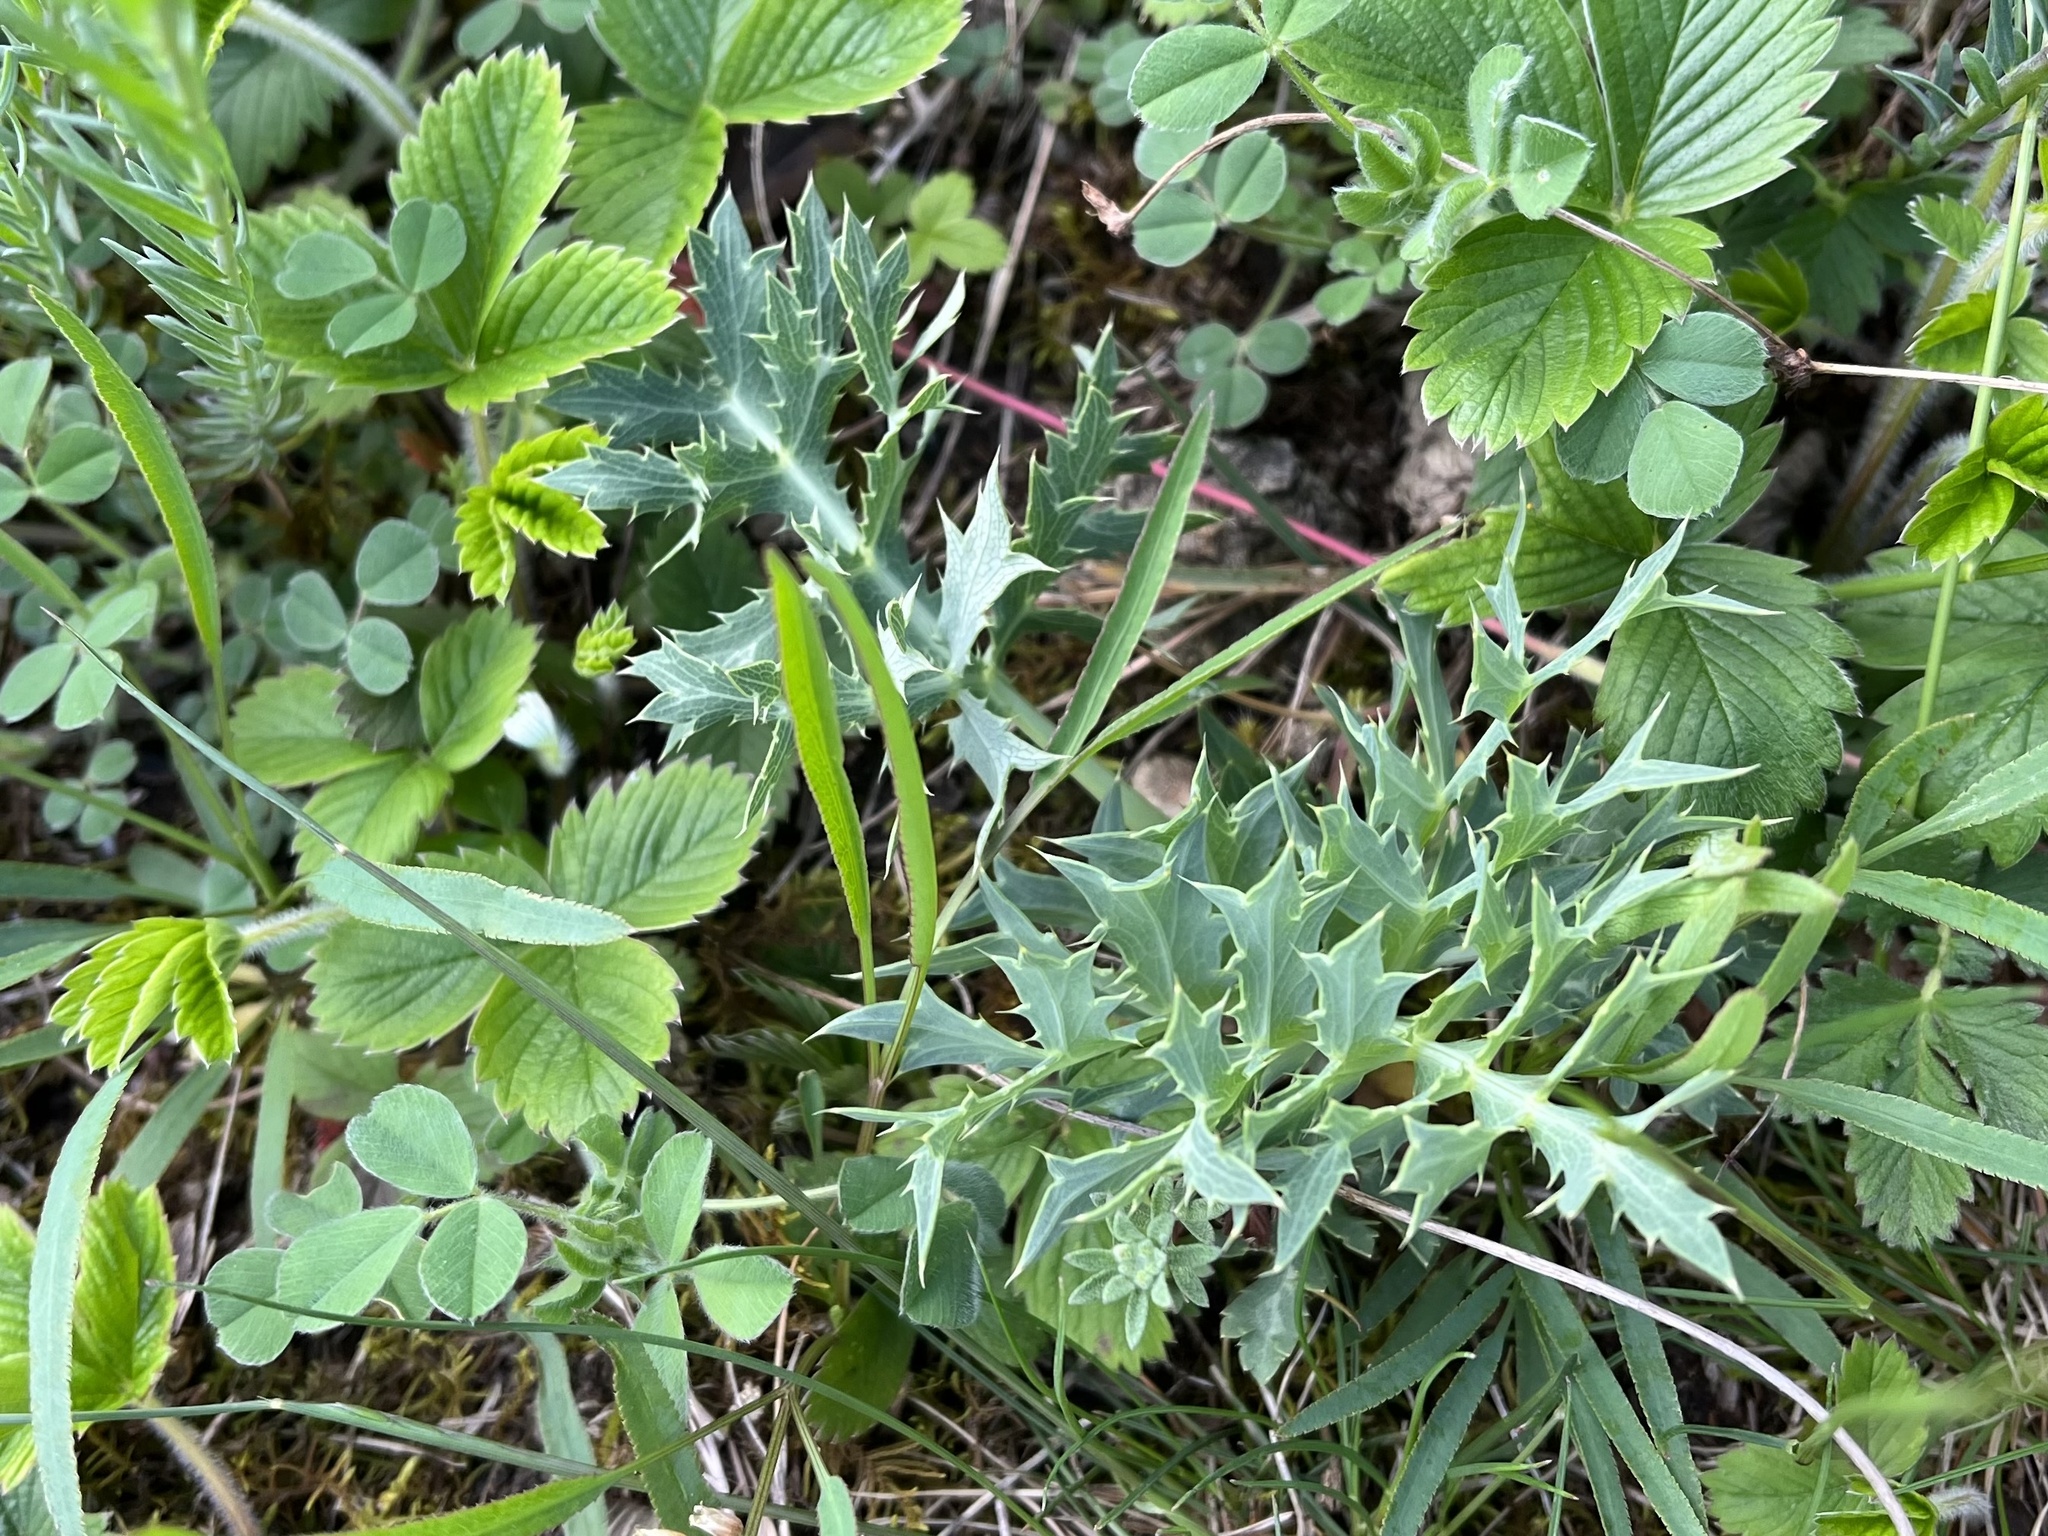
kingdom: Plantae
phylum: Tracheophyta
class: Magnoliopsida
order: Apiales
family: Apiaceae
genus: Eryngium
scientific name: Eryngium campestre
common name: Field eryngo
